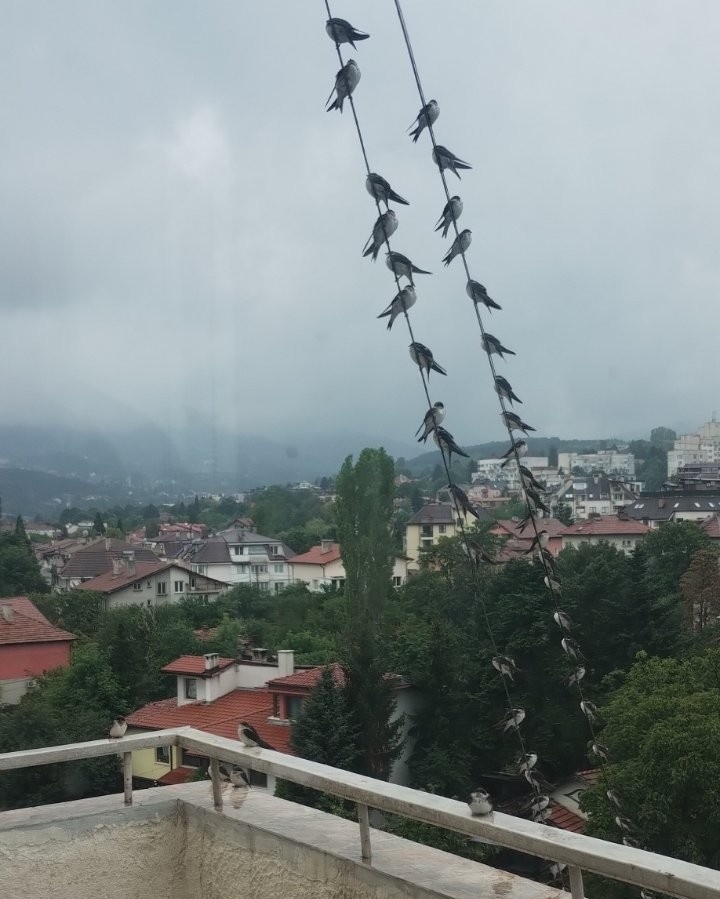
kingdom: Animalia
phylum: Chordata
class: Aves
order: Passeriformes
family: Hirundinidae
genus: Delichon
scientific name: Delichon urbicum
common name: Common house martin
